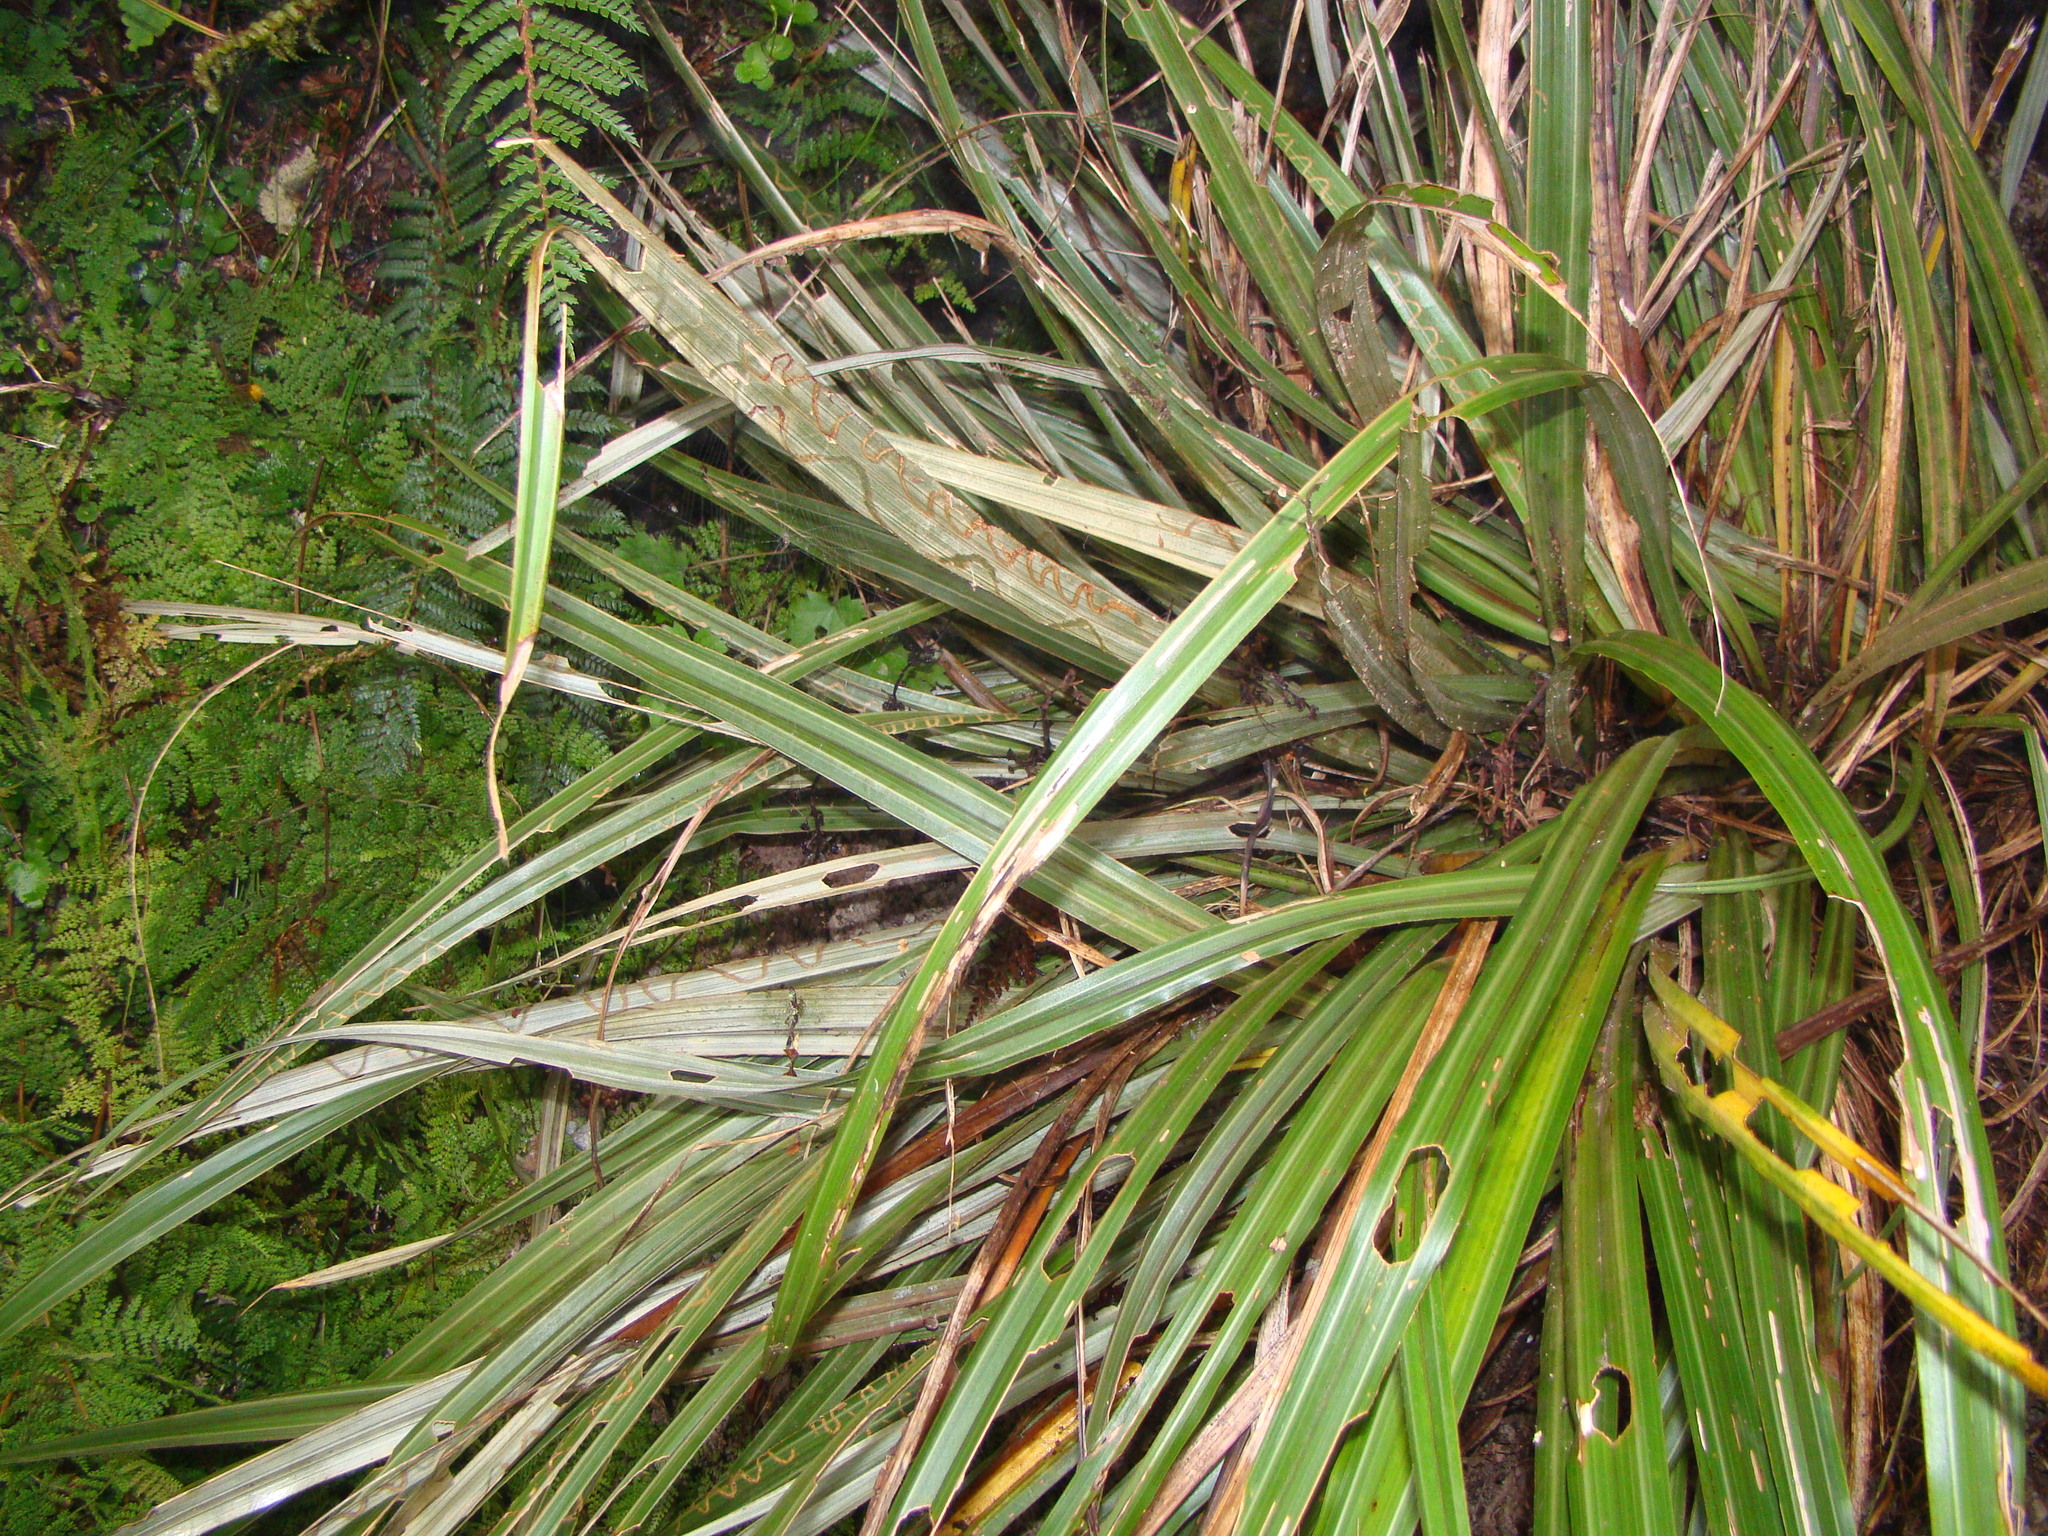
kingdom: Plantae
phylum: Tracheophyta
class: Liliopsida
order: Asparagales
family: Asteliaceae
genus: Astelia
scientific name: Astelia nervosa
